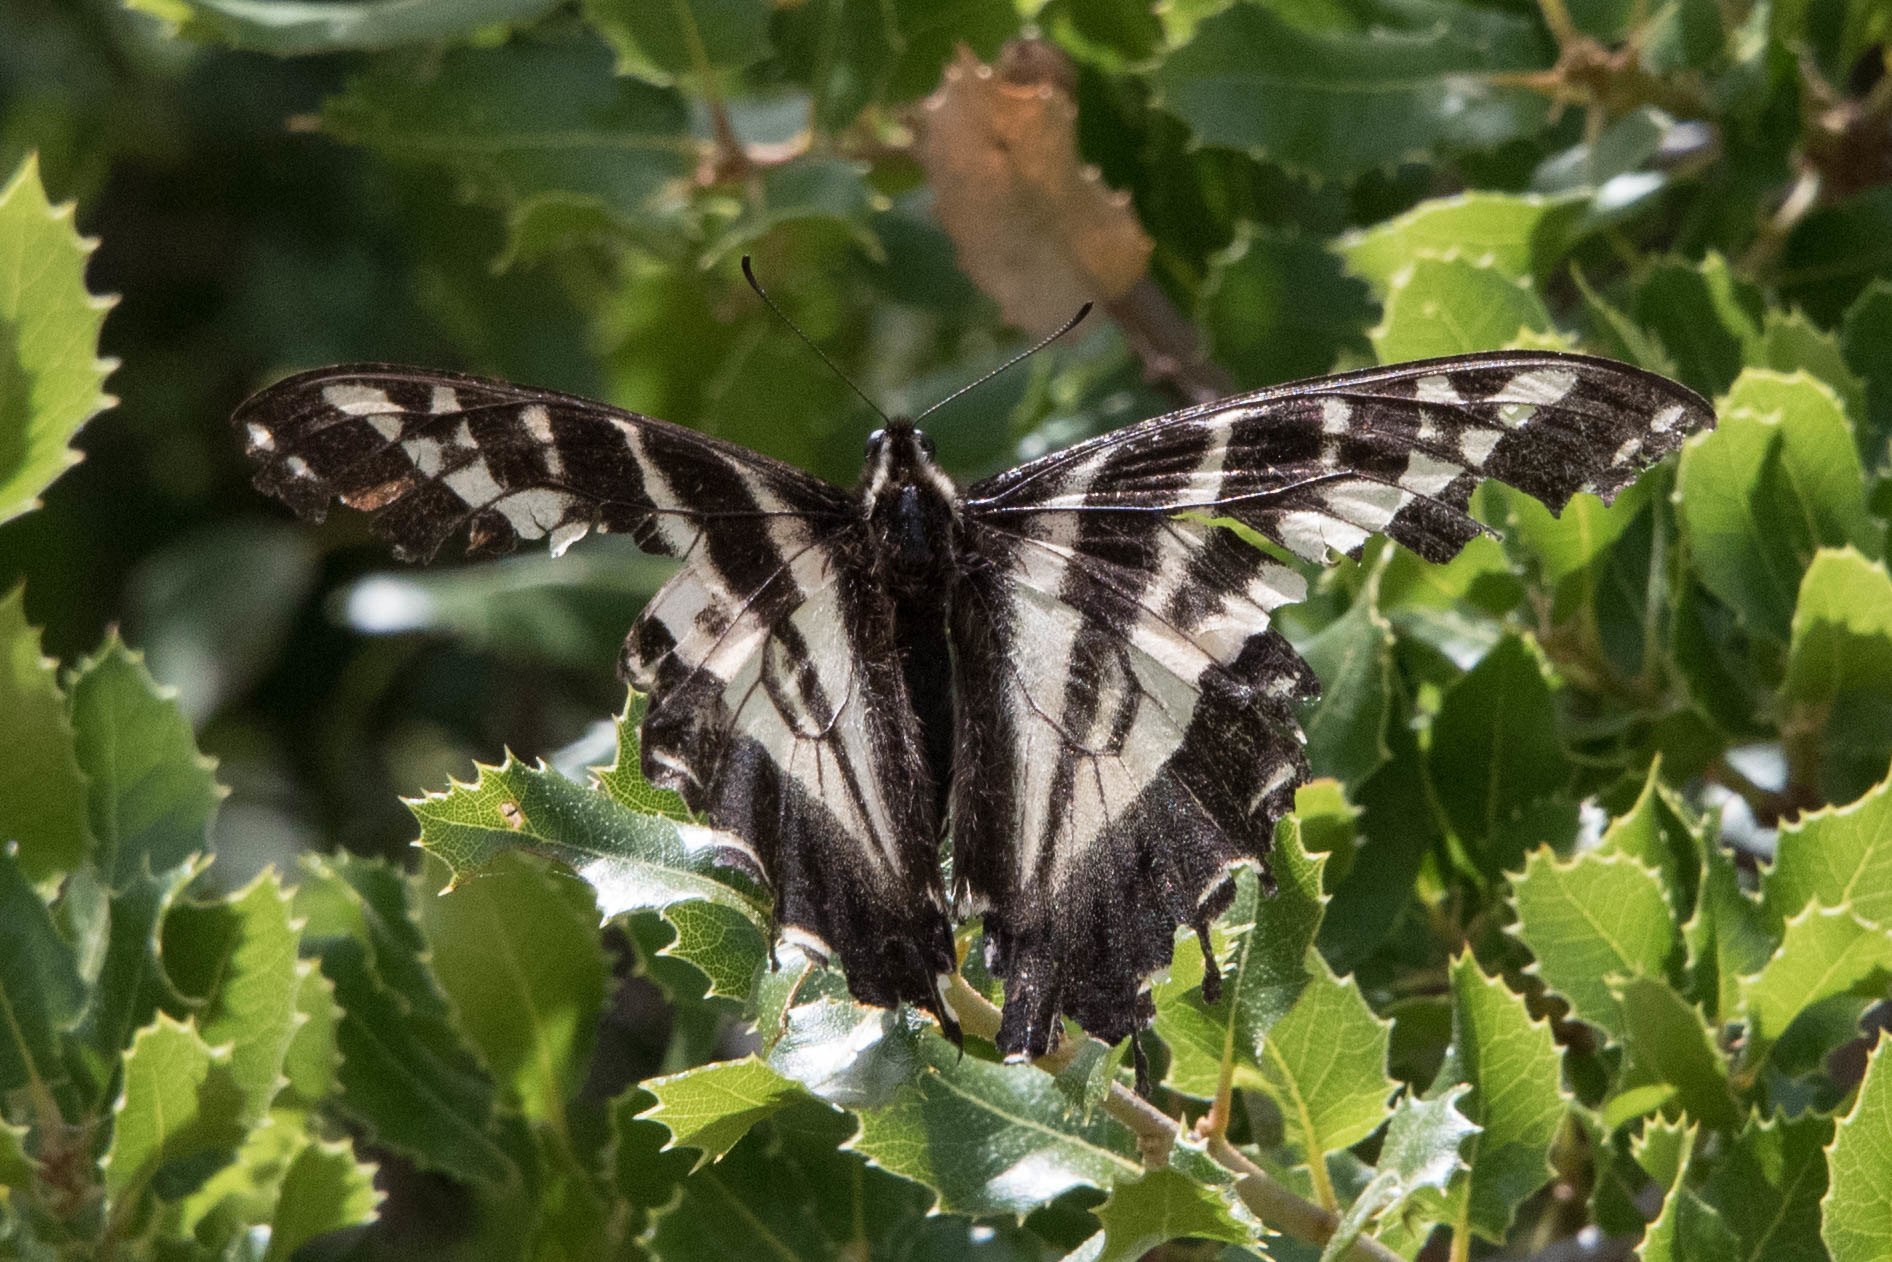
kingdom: Animalia
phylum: Arthropoda
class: Insecta
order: Lepidoptera
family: Papilionidae
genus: Papilio
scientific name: Papilio eurymedon
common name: Pale tiger swallowtail
